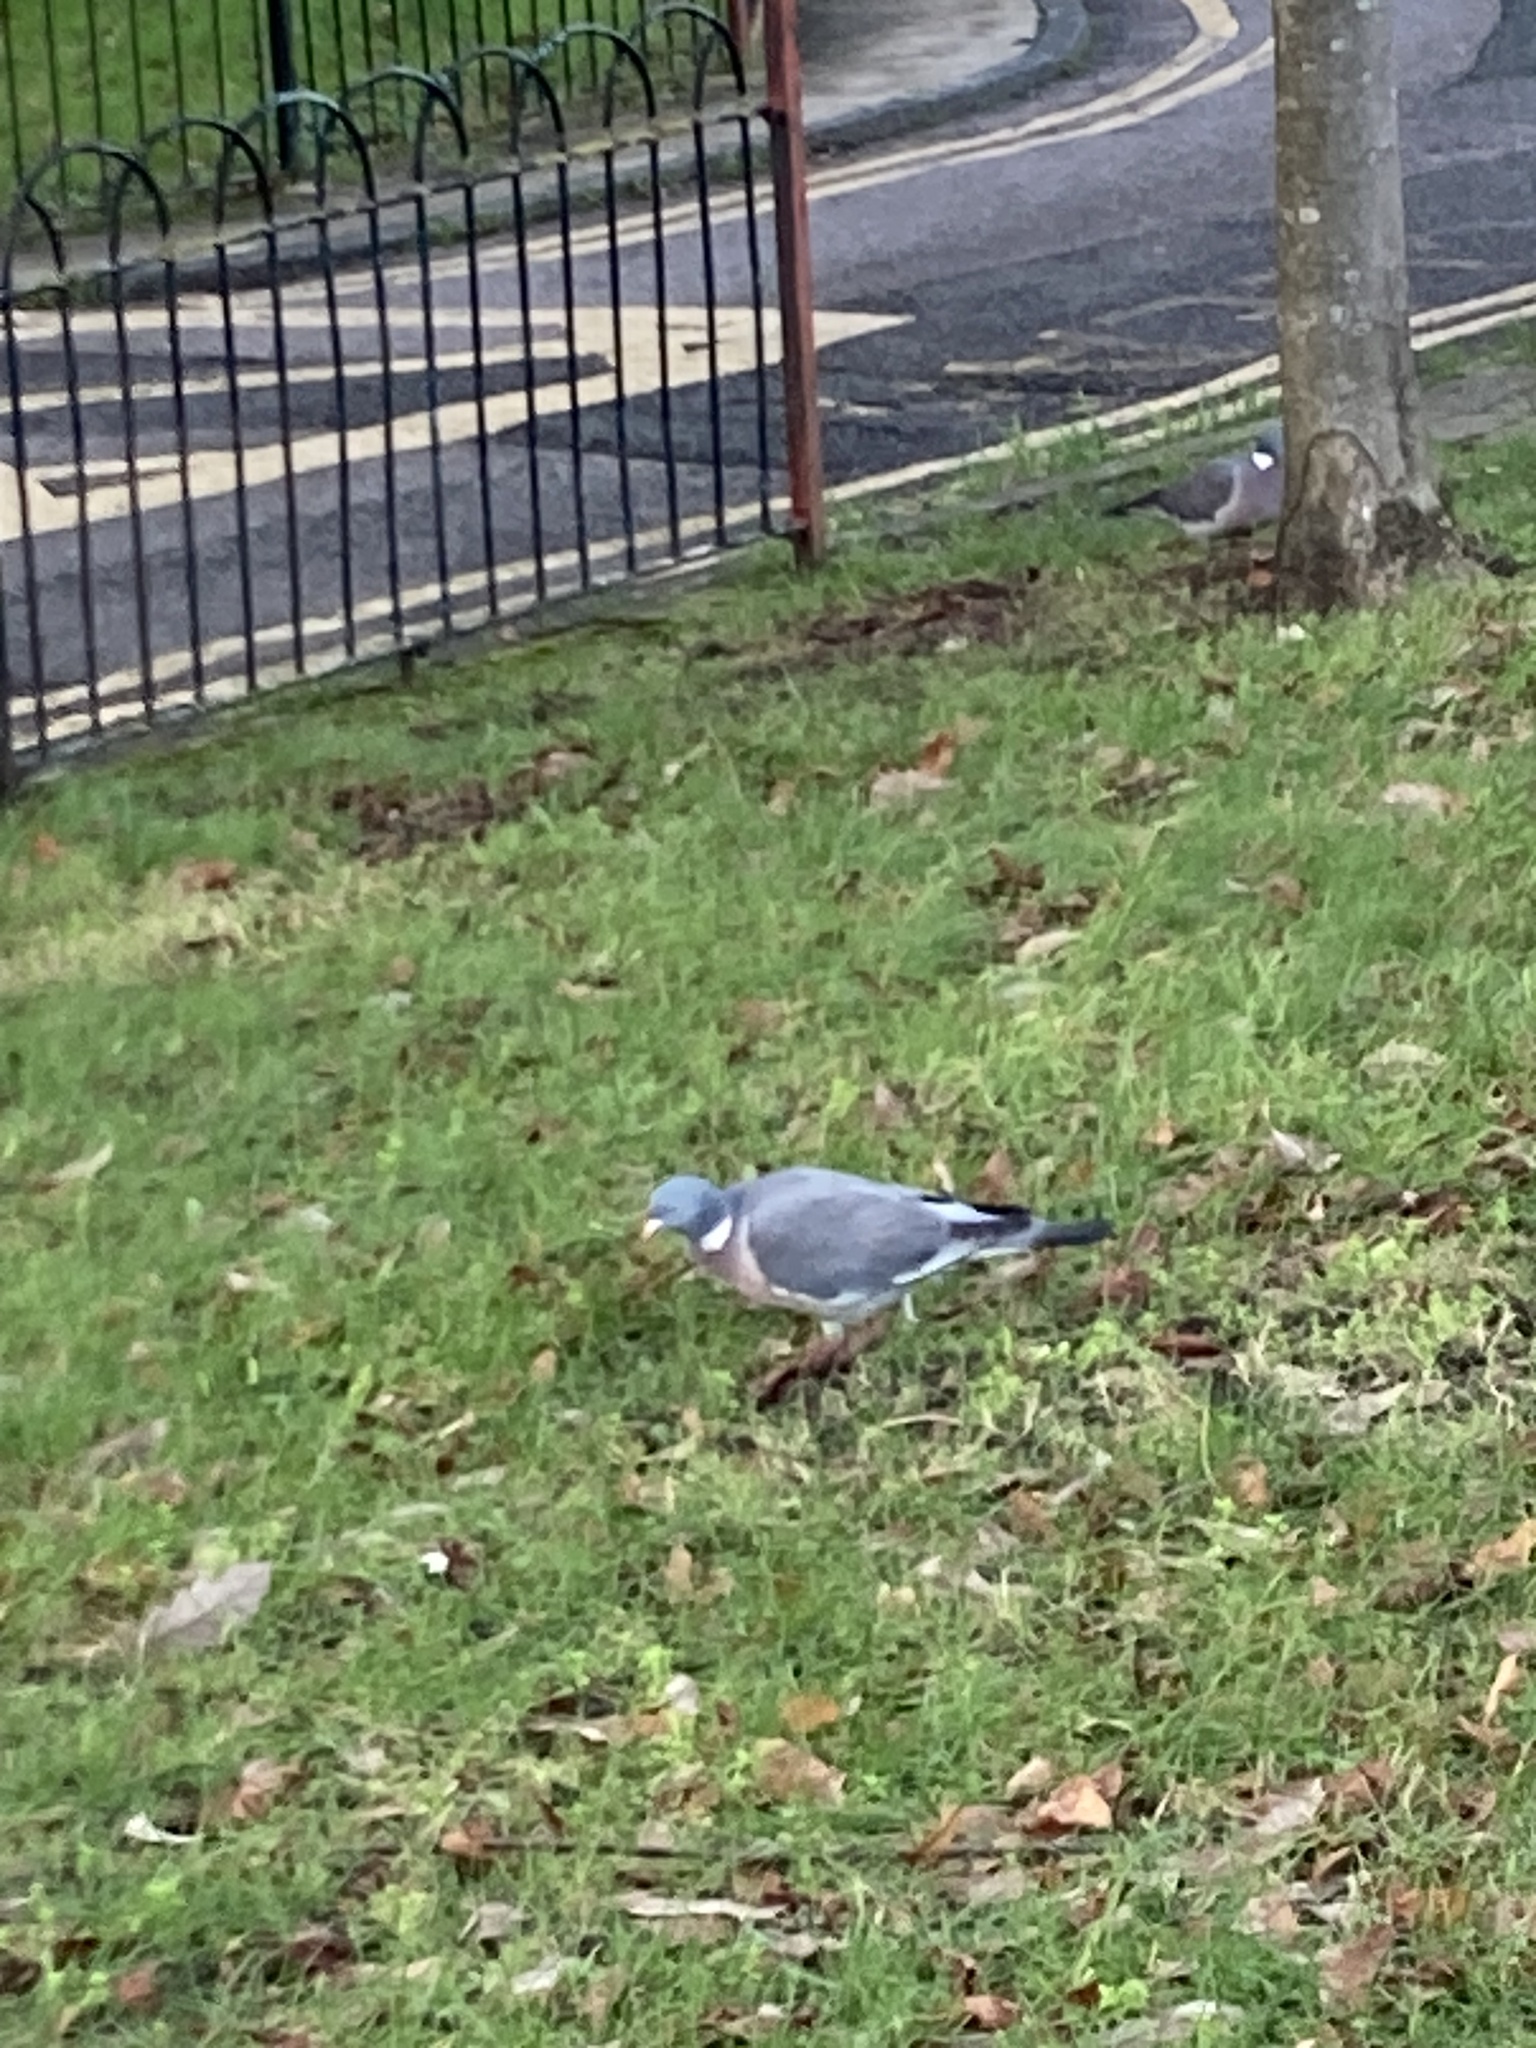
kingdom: Animalia
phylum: Chordata
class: Aves
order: Columbiformes
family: Columbidae
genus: Columba
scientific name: Columba palumbus
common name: Common wood pigeon
